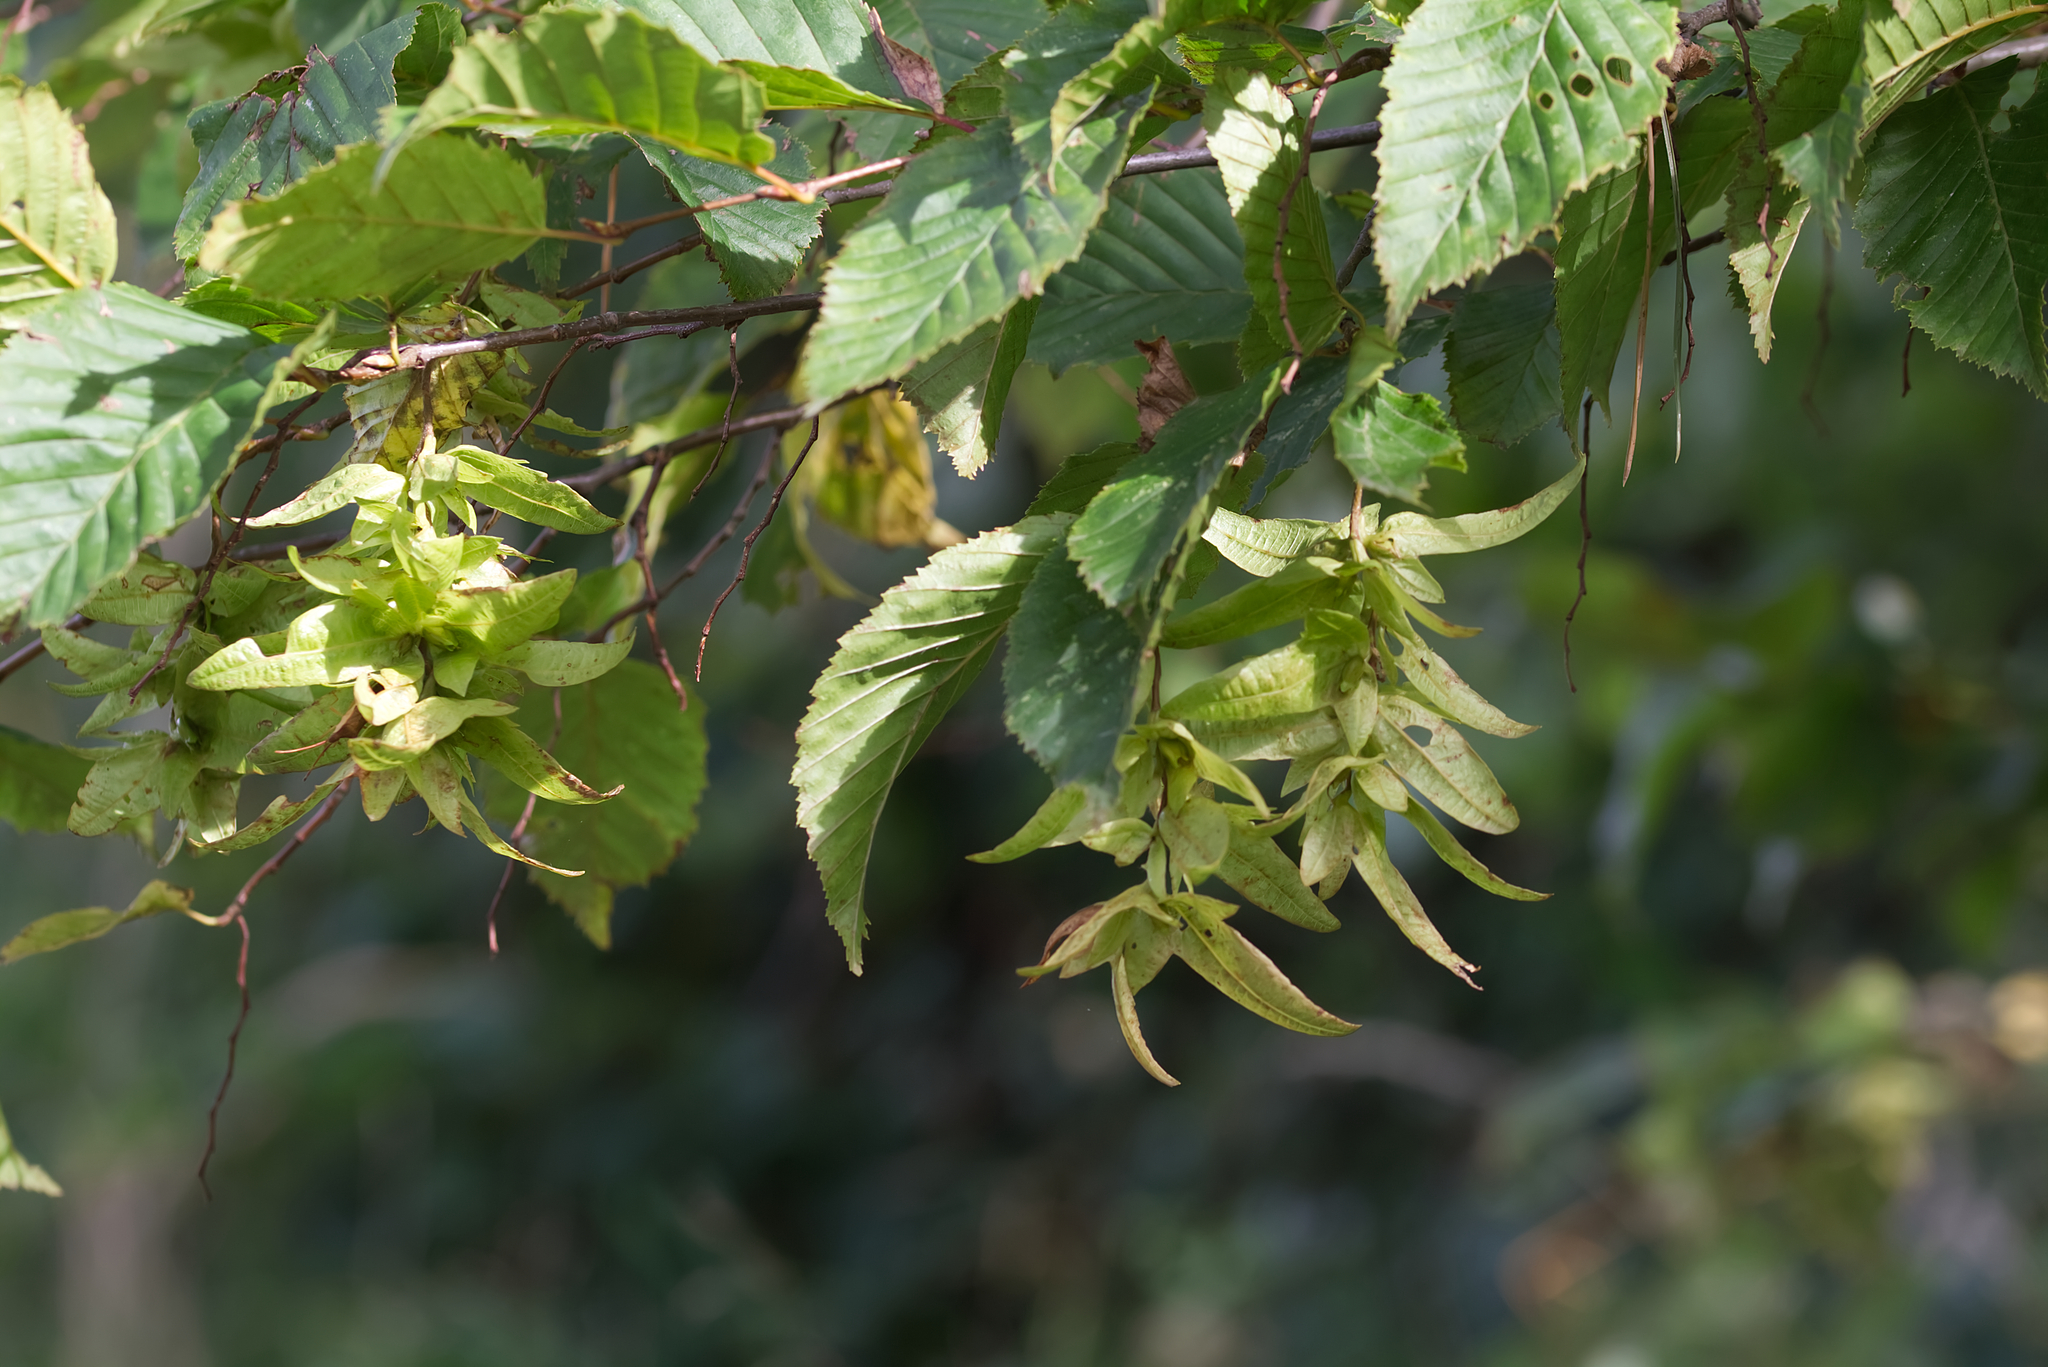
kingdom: Plantae
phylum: Tracheophyta
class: Magnoliopsida
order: Fagales
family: Betulaceae
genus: Carpinus
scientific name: Carpinus betulus
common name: Hornbeam
